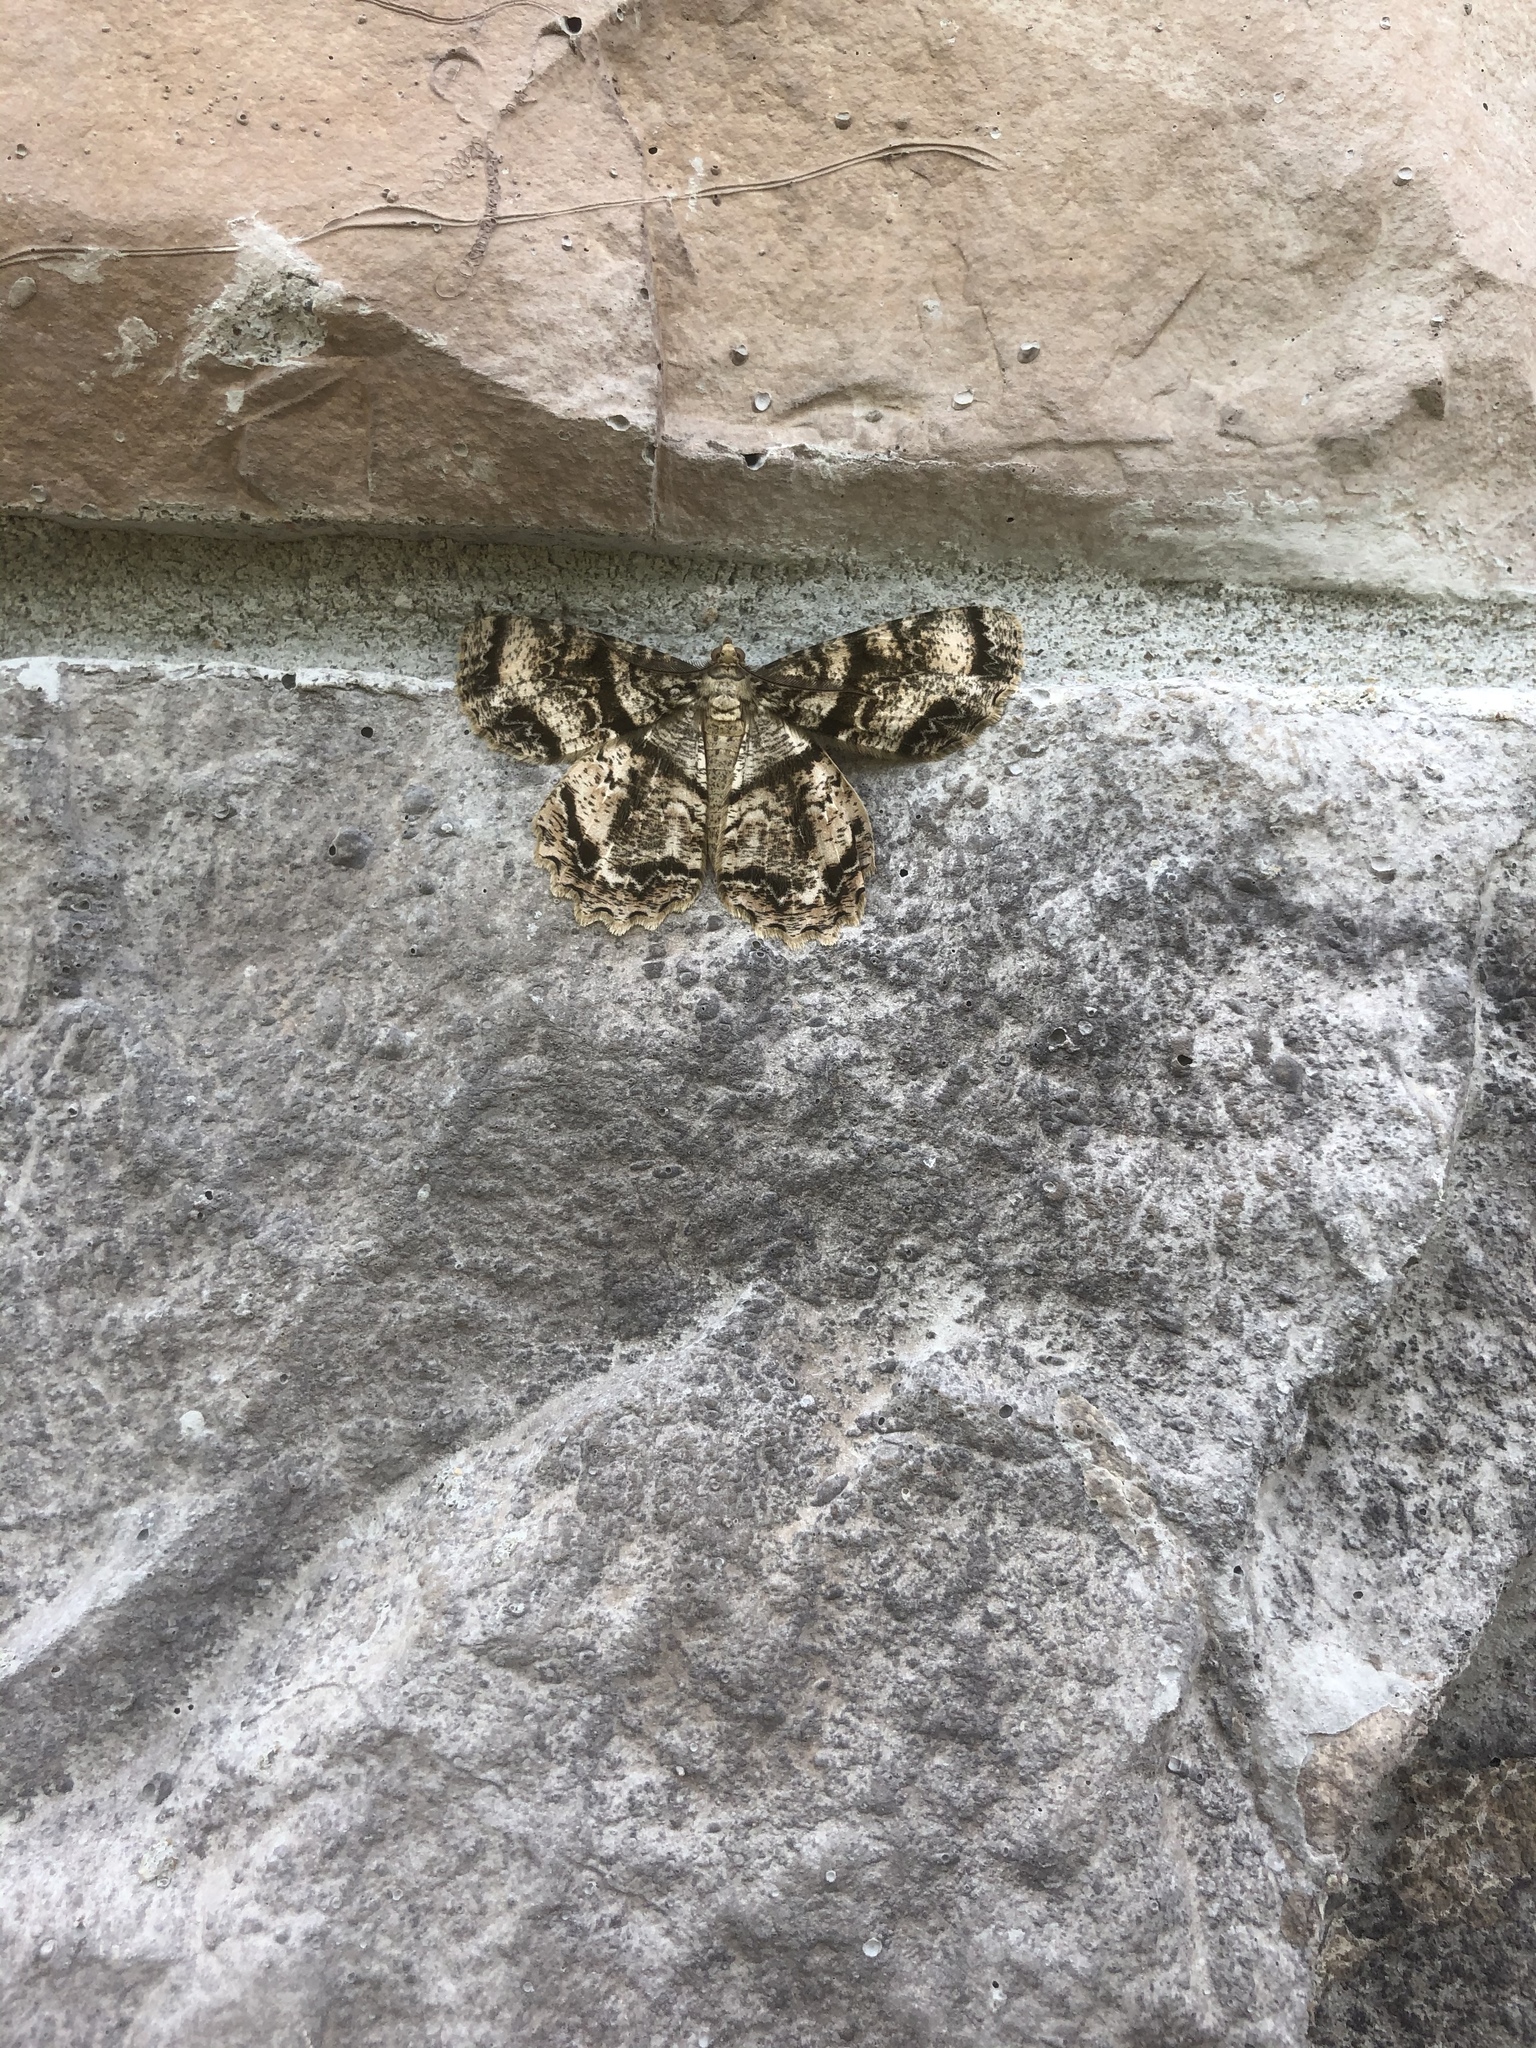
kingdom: Animalia
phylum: Arthropoda
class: Insecta
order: Lepidoptera
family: Geometridae
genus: Epimecis
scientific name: Epimecis hortaria
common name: Tulip-tree beauty
